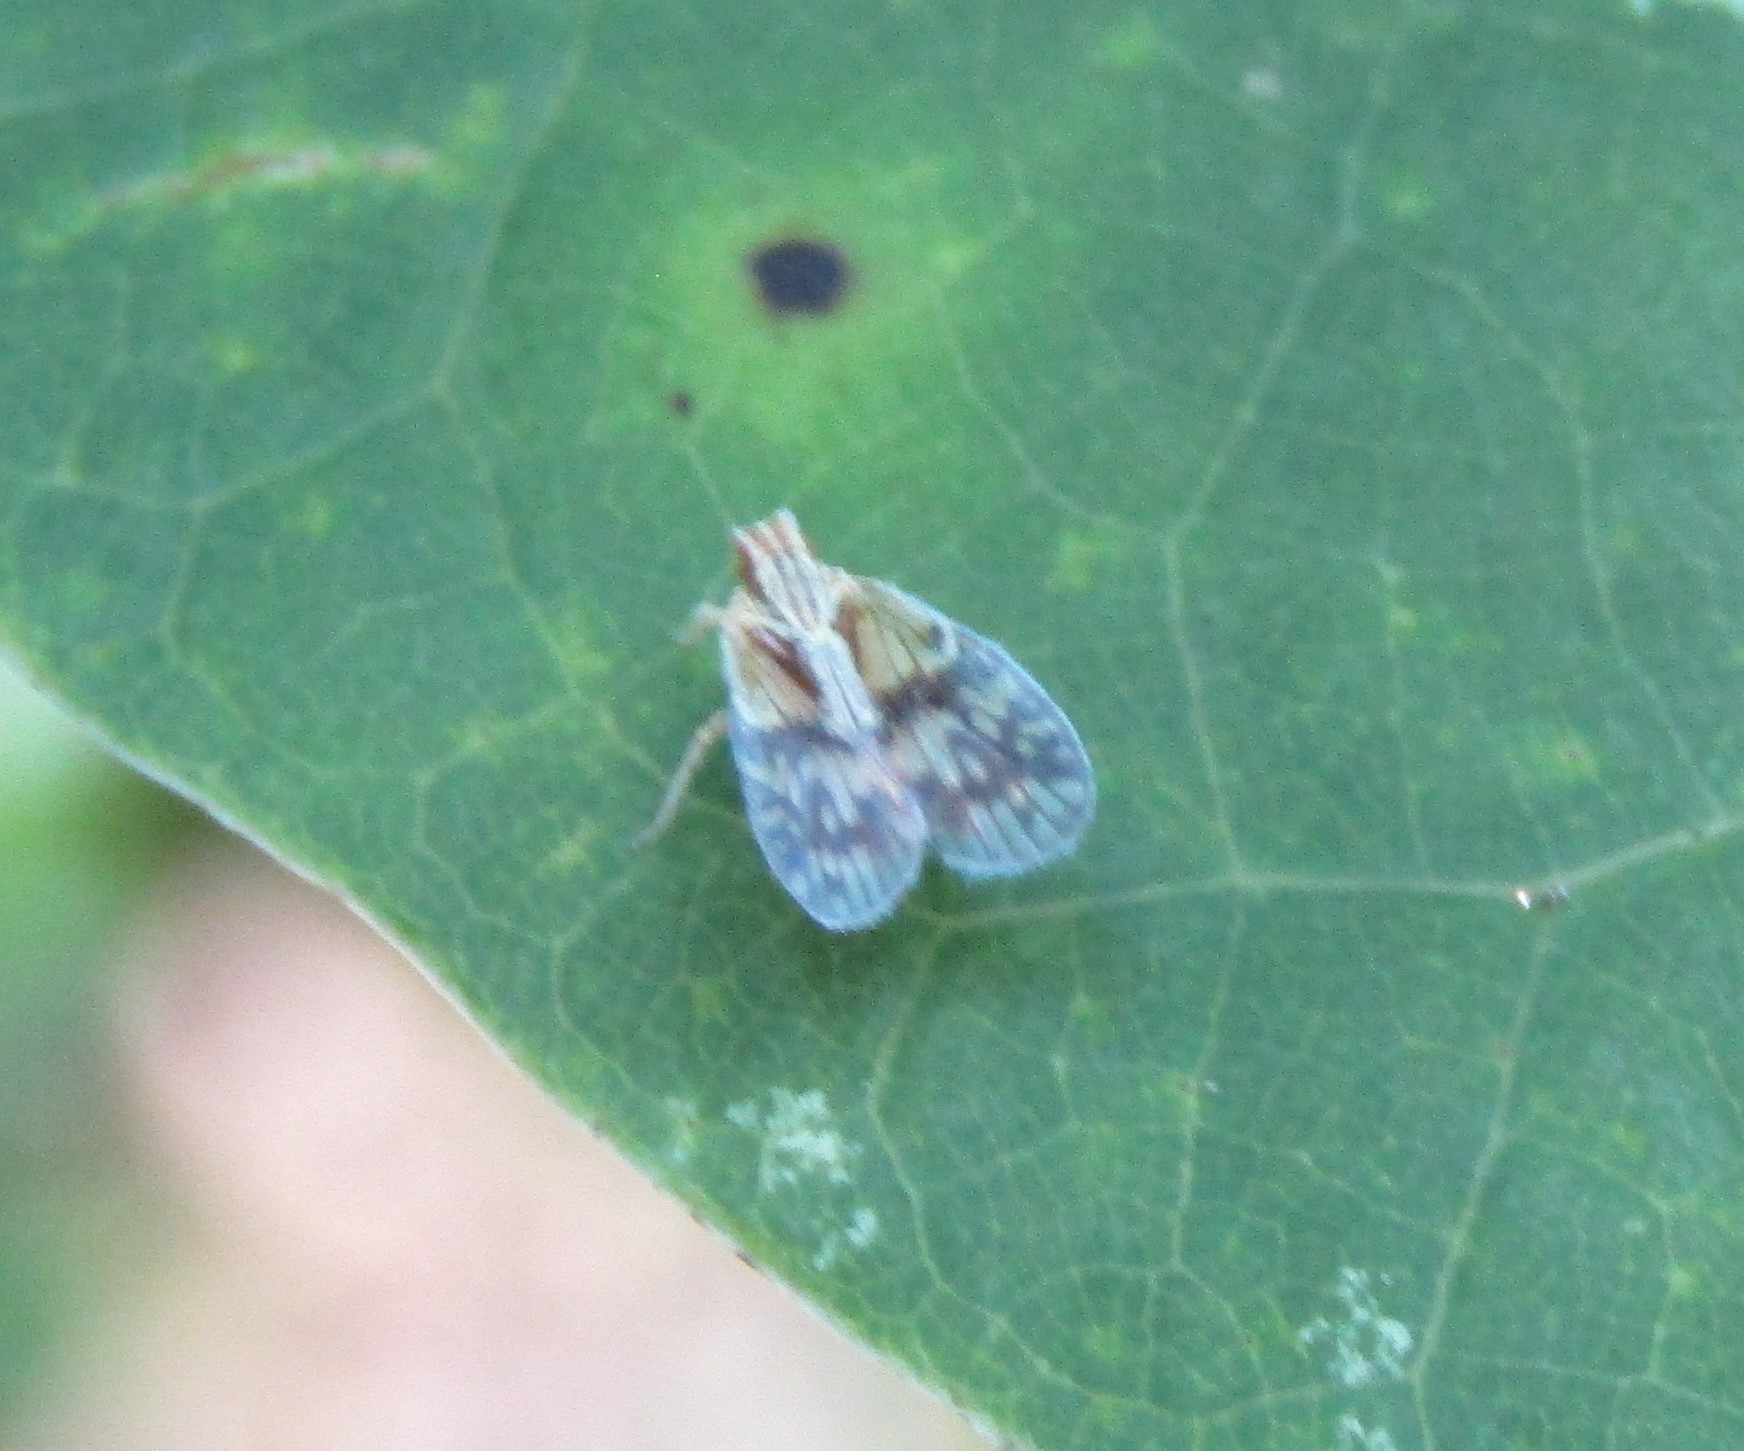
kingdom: Animalia
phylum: Arthropoda
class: Insecta
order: Hemiptera
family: Cixiidae
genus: Bothriocera
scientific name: Bothriocera datuna
